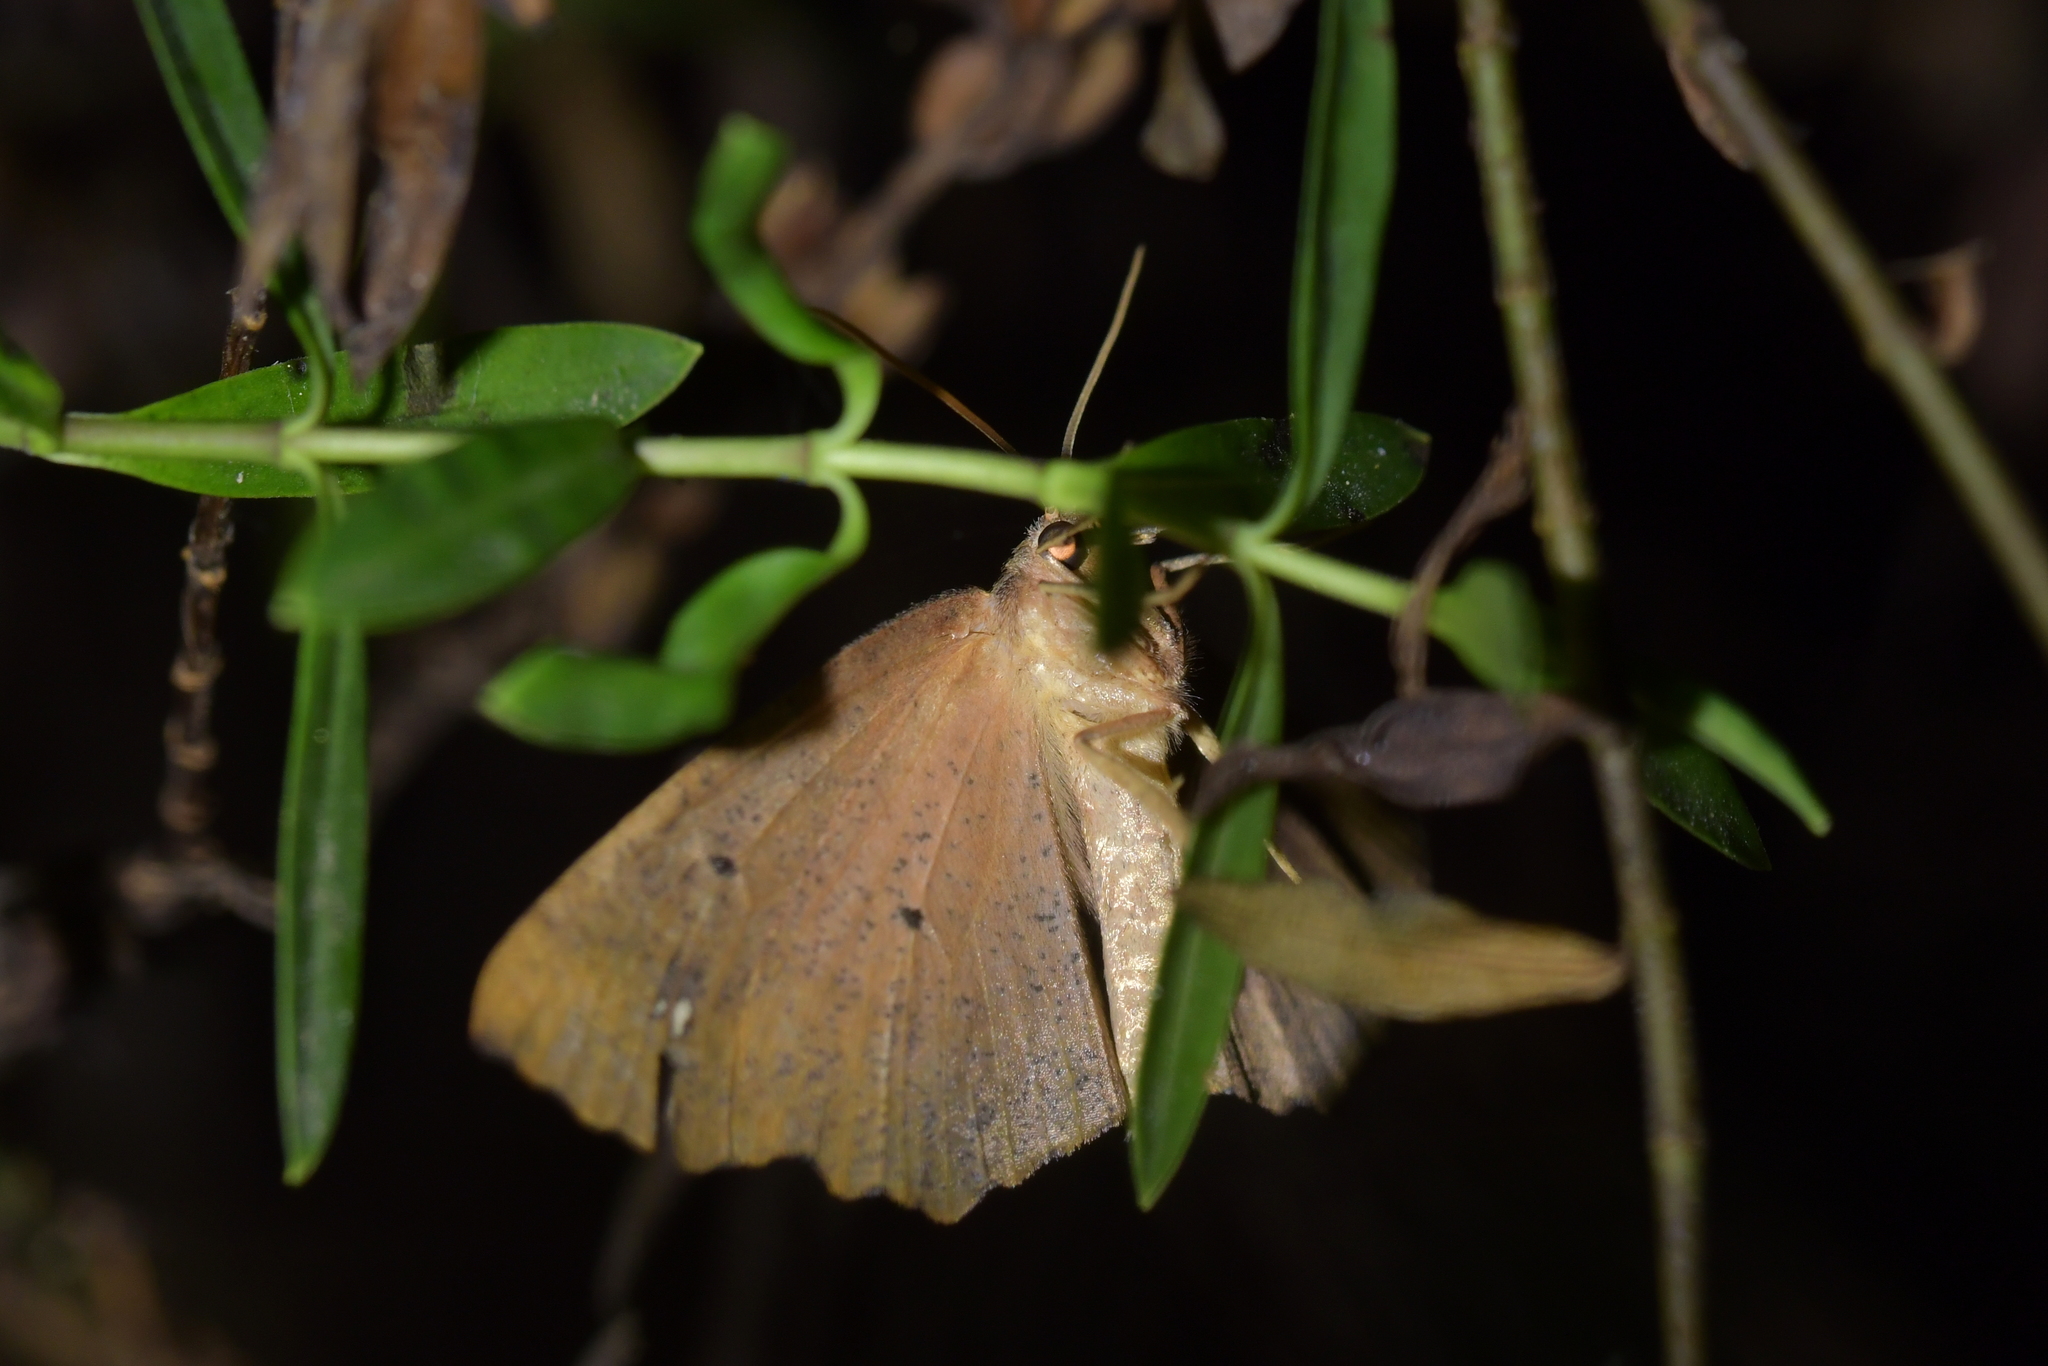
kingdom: Animalia
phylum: Arthropoda
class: Insecta
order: Lepidoptera
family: Geometridae
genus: Xyridacma
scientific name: Xyridacma ustaria
